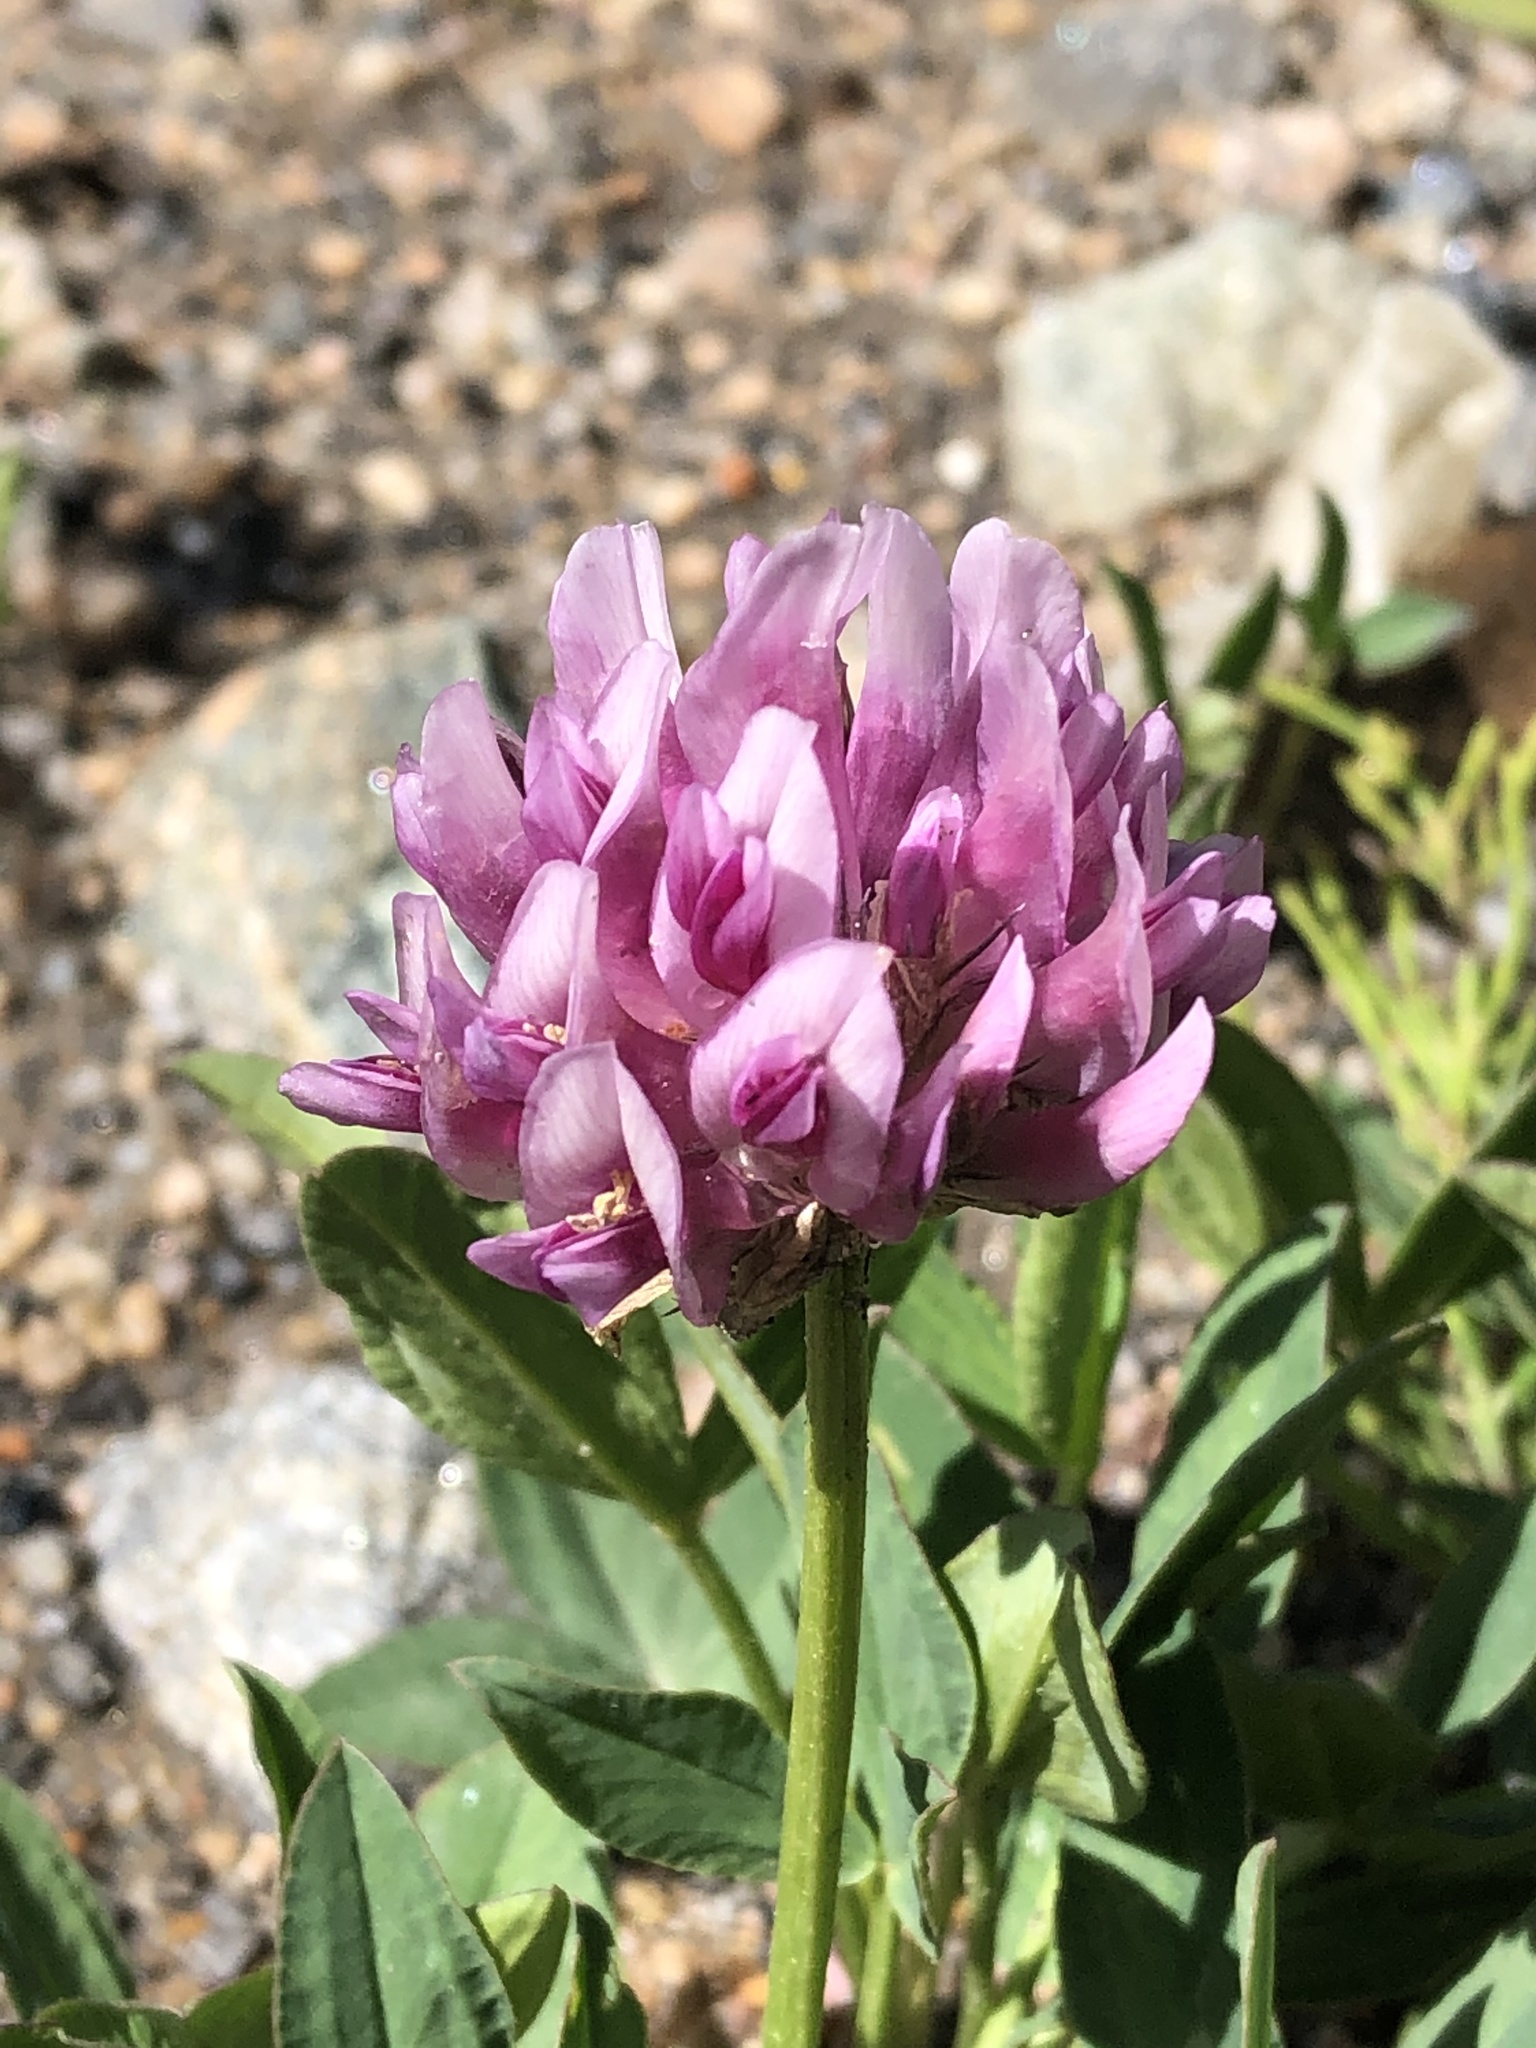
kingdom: Plantae
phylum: Tracheophyta
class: Magnoliopsida
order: Fabales
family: Fabaceae
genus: Trifolium
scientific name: Trifolium parryi
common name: Parry's clover
